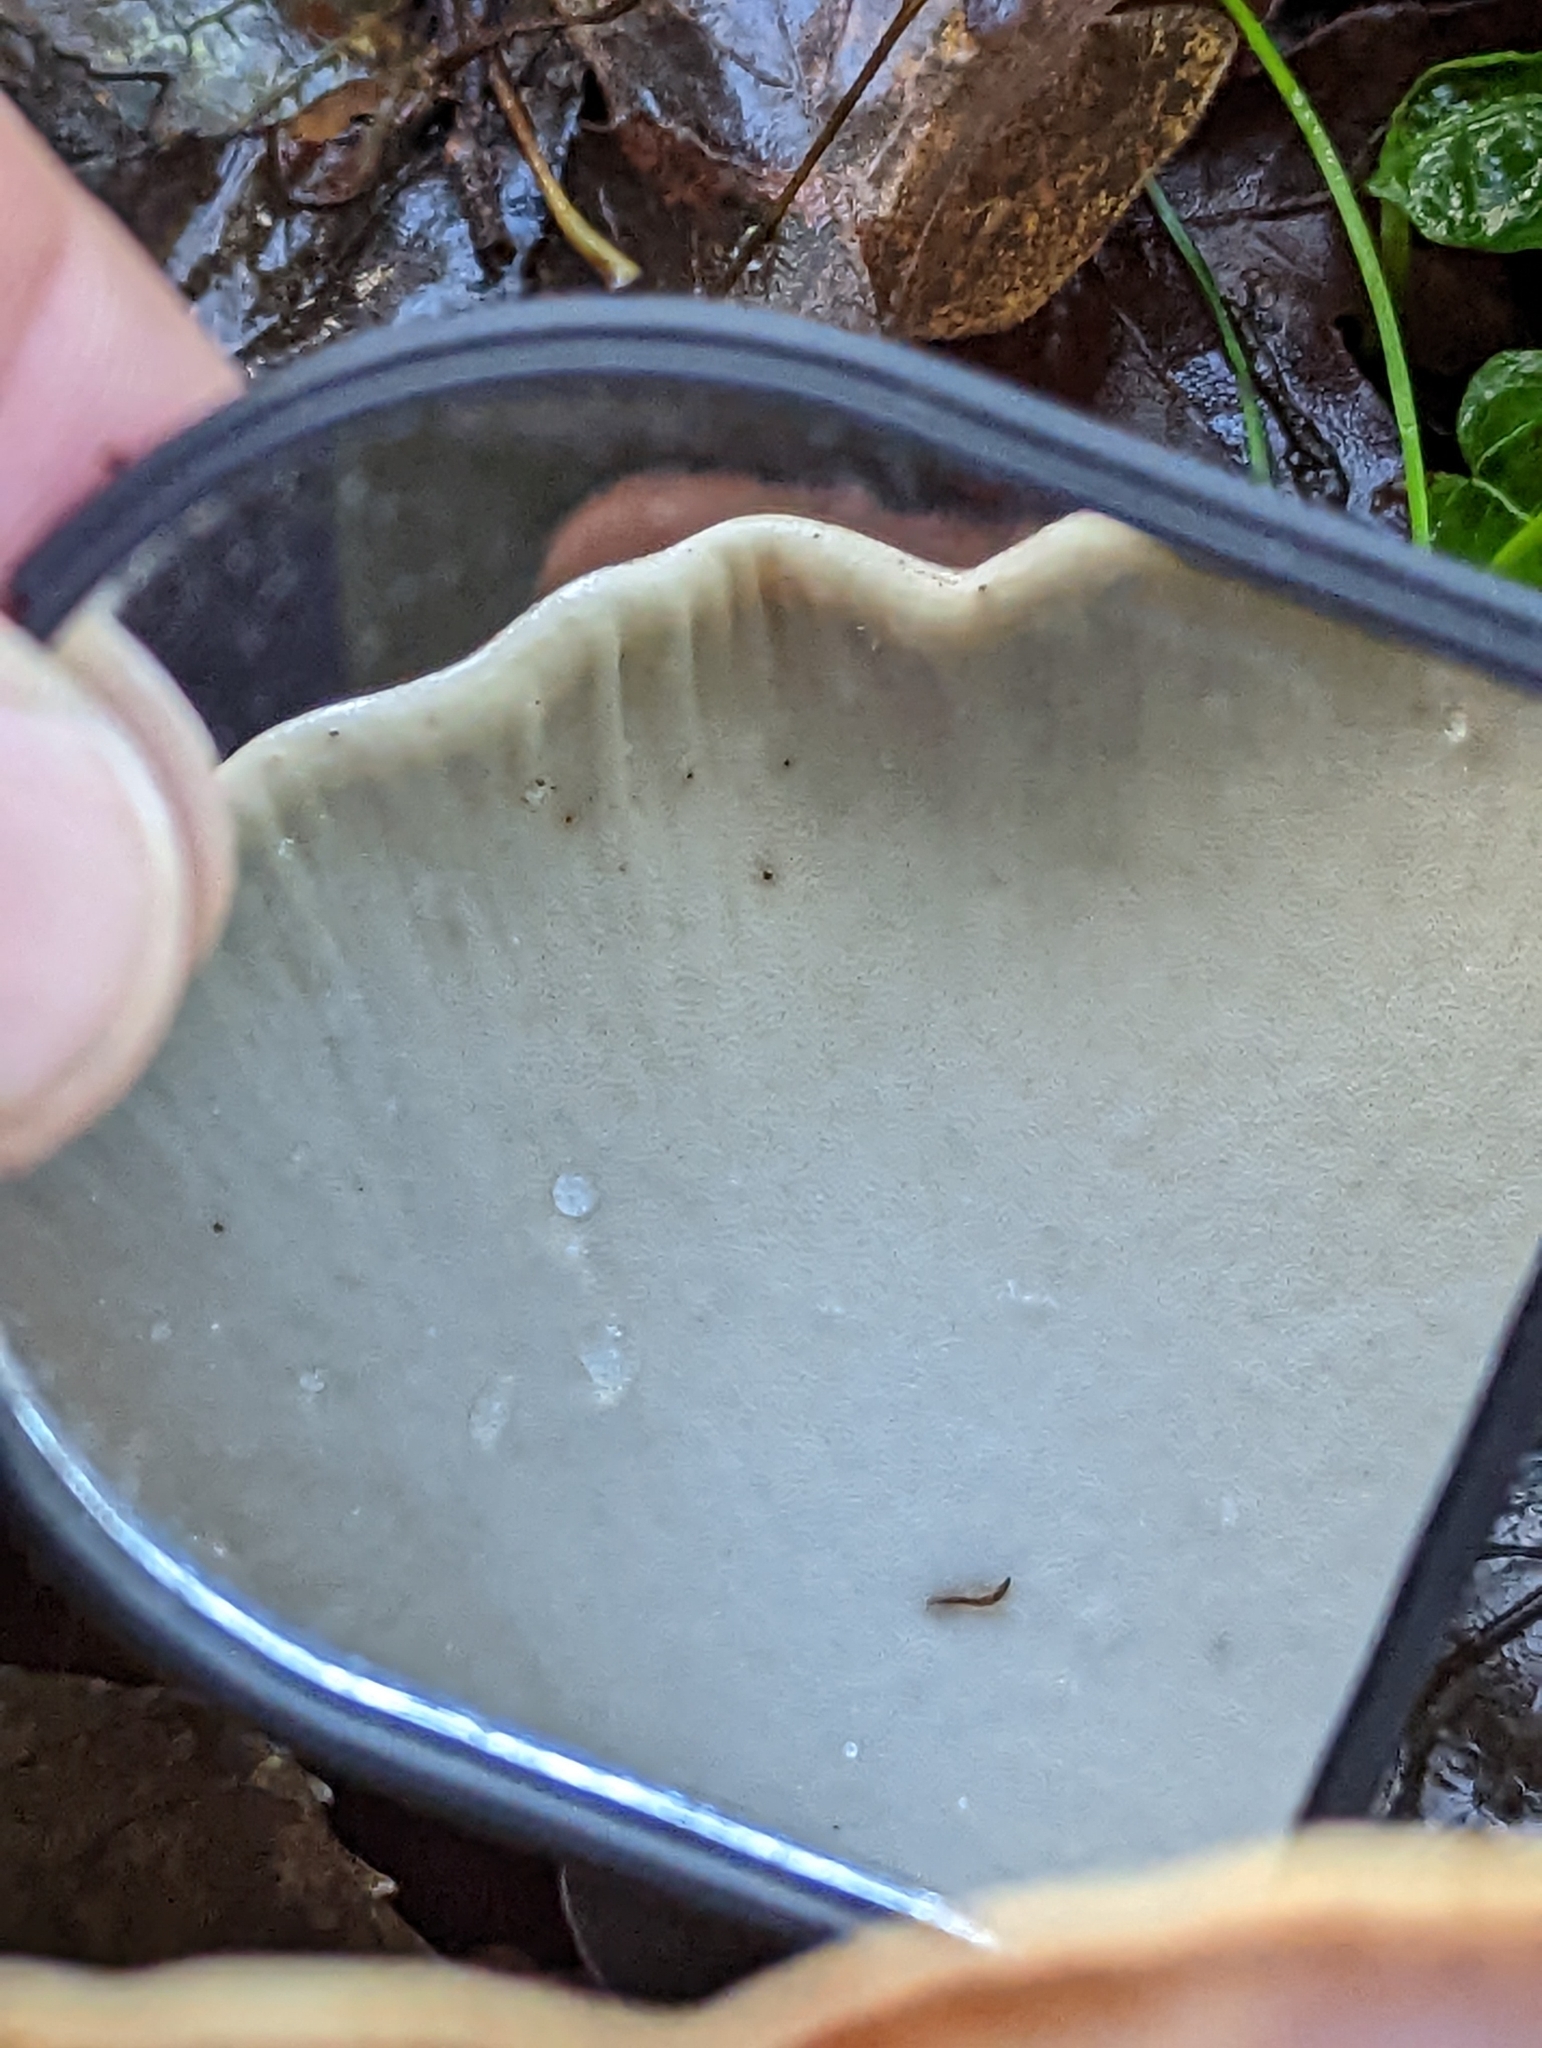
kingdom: Fungi
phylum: Basidiomycota
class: Agaricomycetes
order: Polyporales
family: Fomitopsidaceae
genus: Fomitopsis
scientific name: Fomitopsis betulina
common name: Birch polypore
